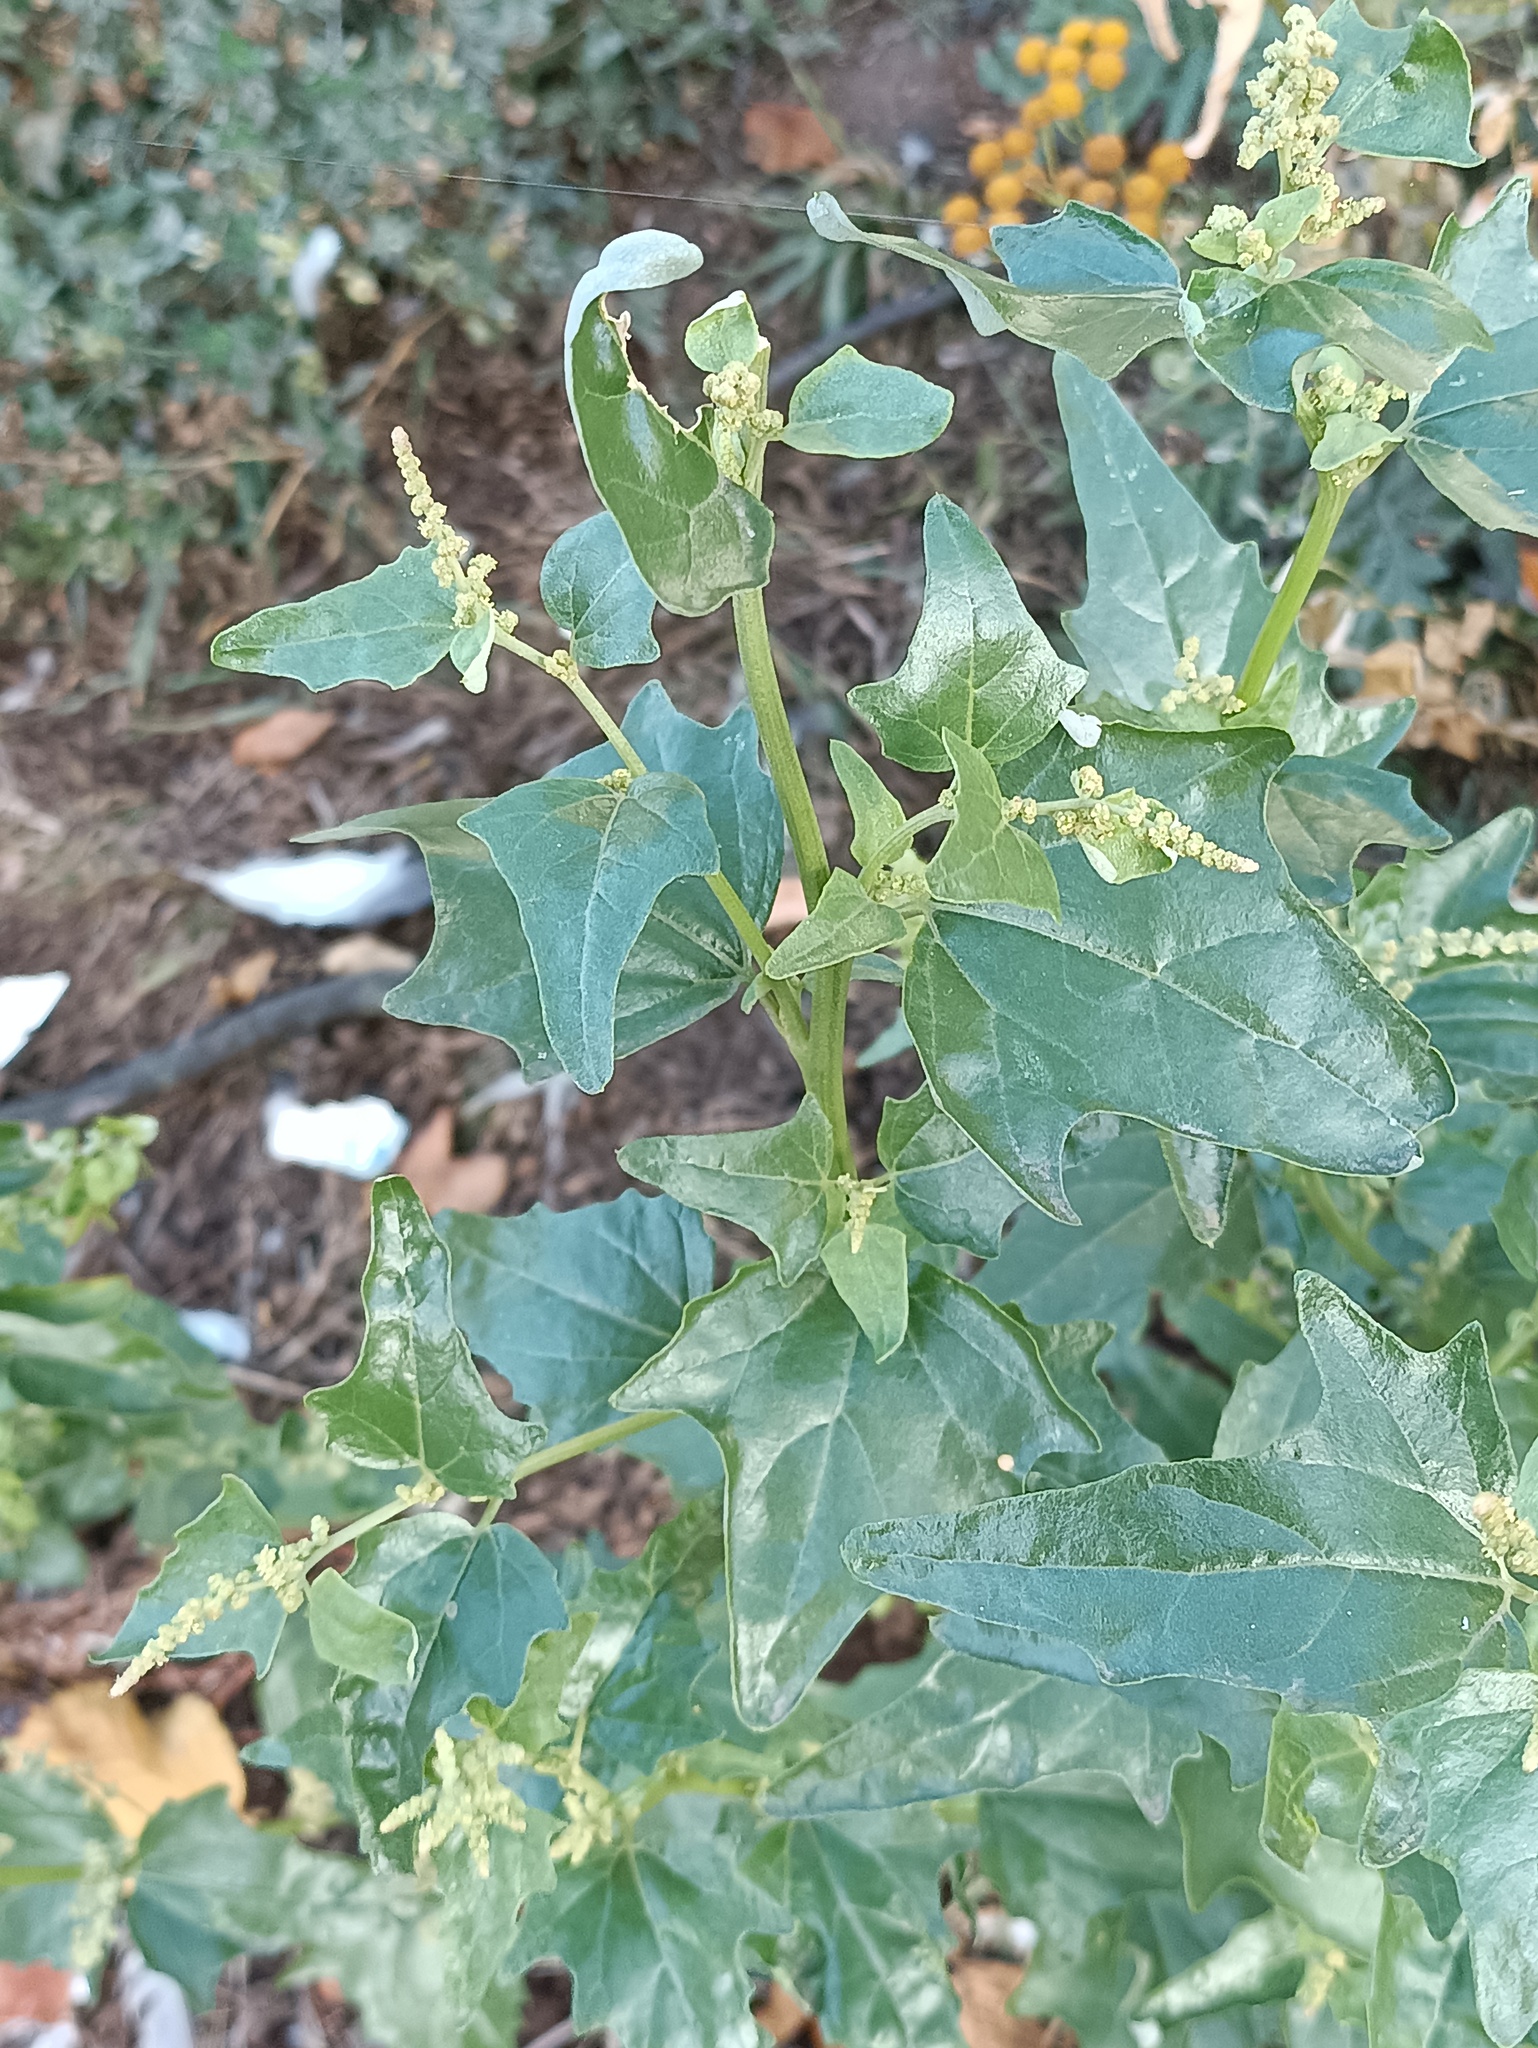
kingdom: Plantae
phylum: Tracheophyta
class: Magnoliopsida
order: Caryophyllales
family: Amaranthaceae
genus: Atriplex
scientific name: Atriplex sagittata
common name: Purple orache
